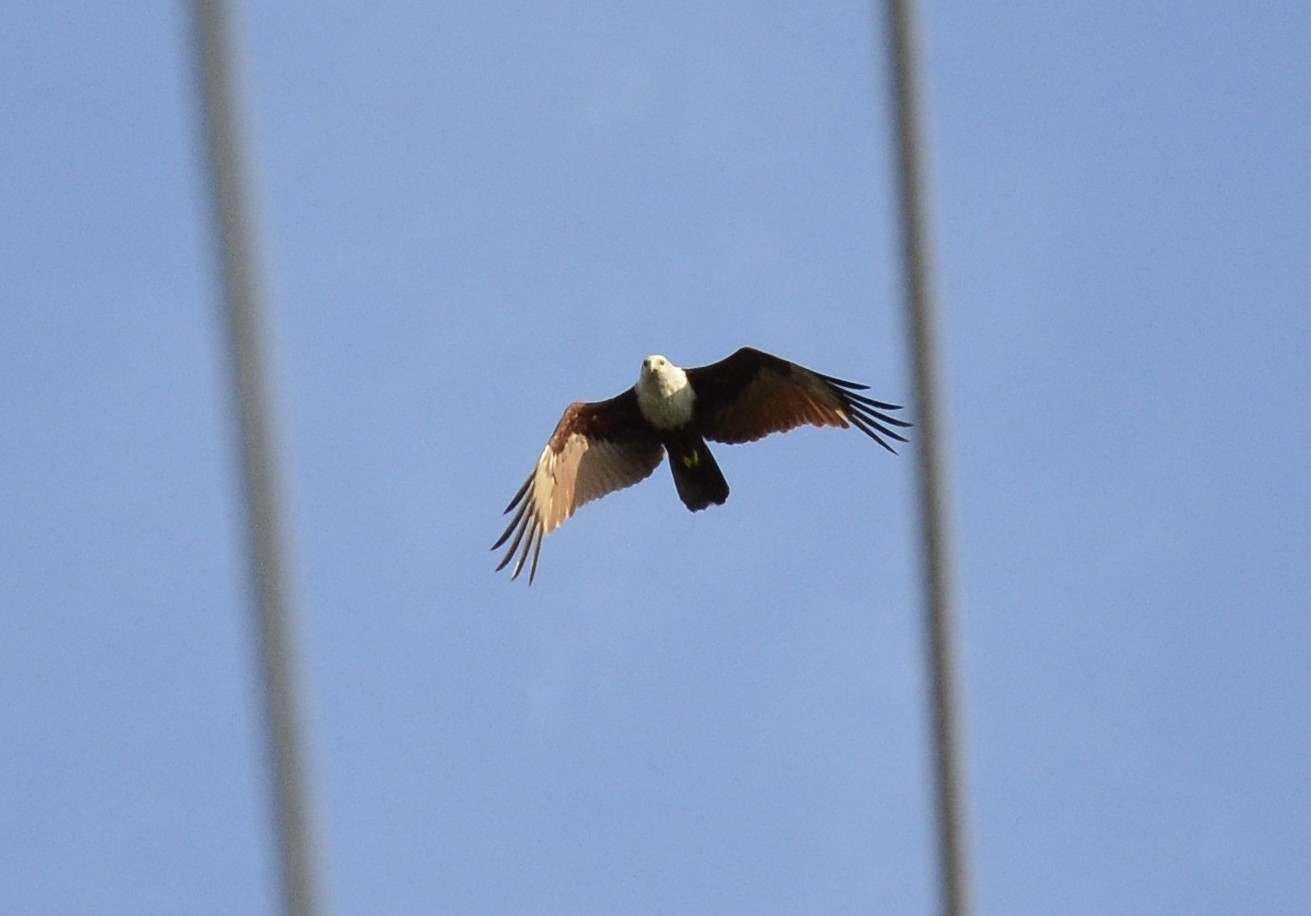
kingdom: Animalia
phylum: Chordata
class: Aves
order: Accipitriformes
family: Accipitridae
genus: Haliastur
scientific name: Haliastur indus
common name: Brahminy kite
